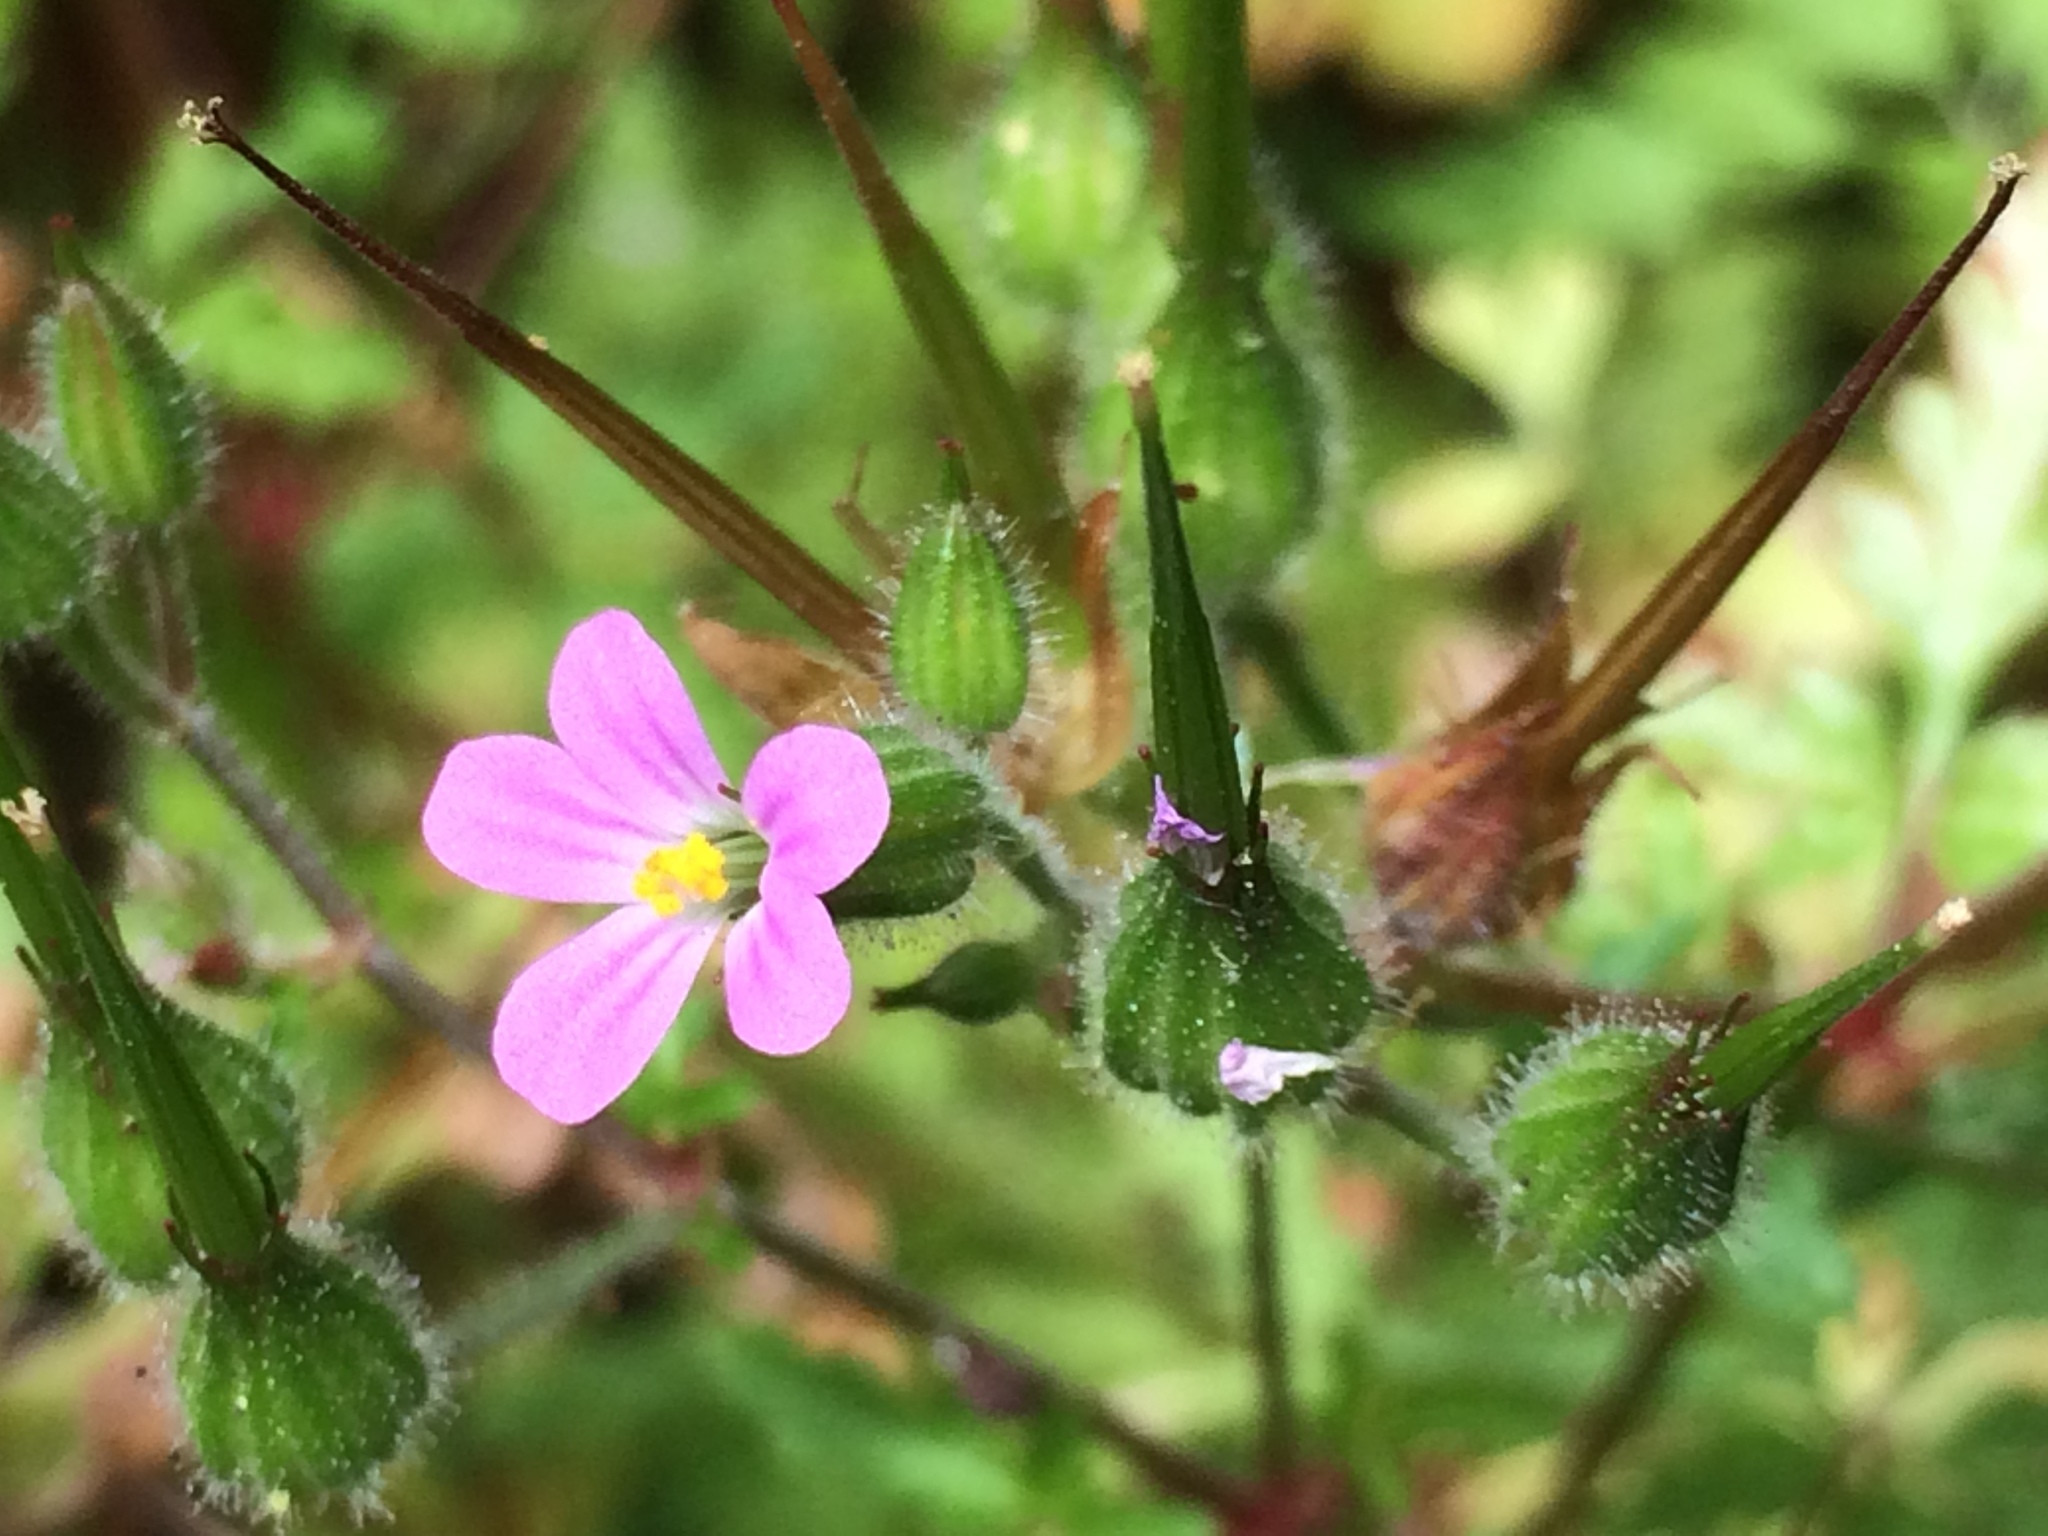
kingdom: Plantae
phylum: Tracheophyta
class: Magnoliopsida
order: Geraniales
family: Geraniaceae
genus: Geranium
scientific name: Geranium purpureum
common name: Little-robin
